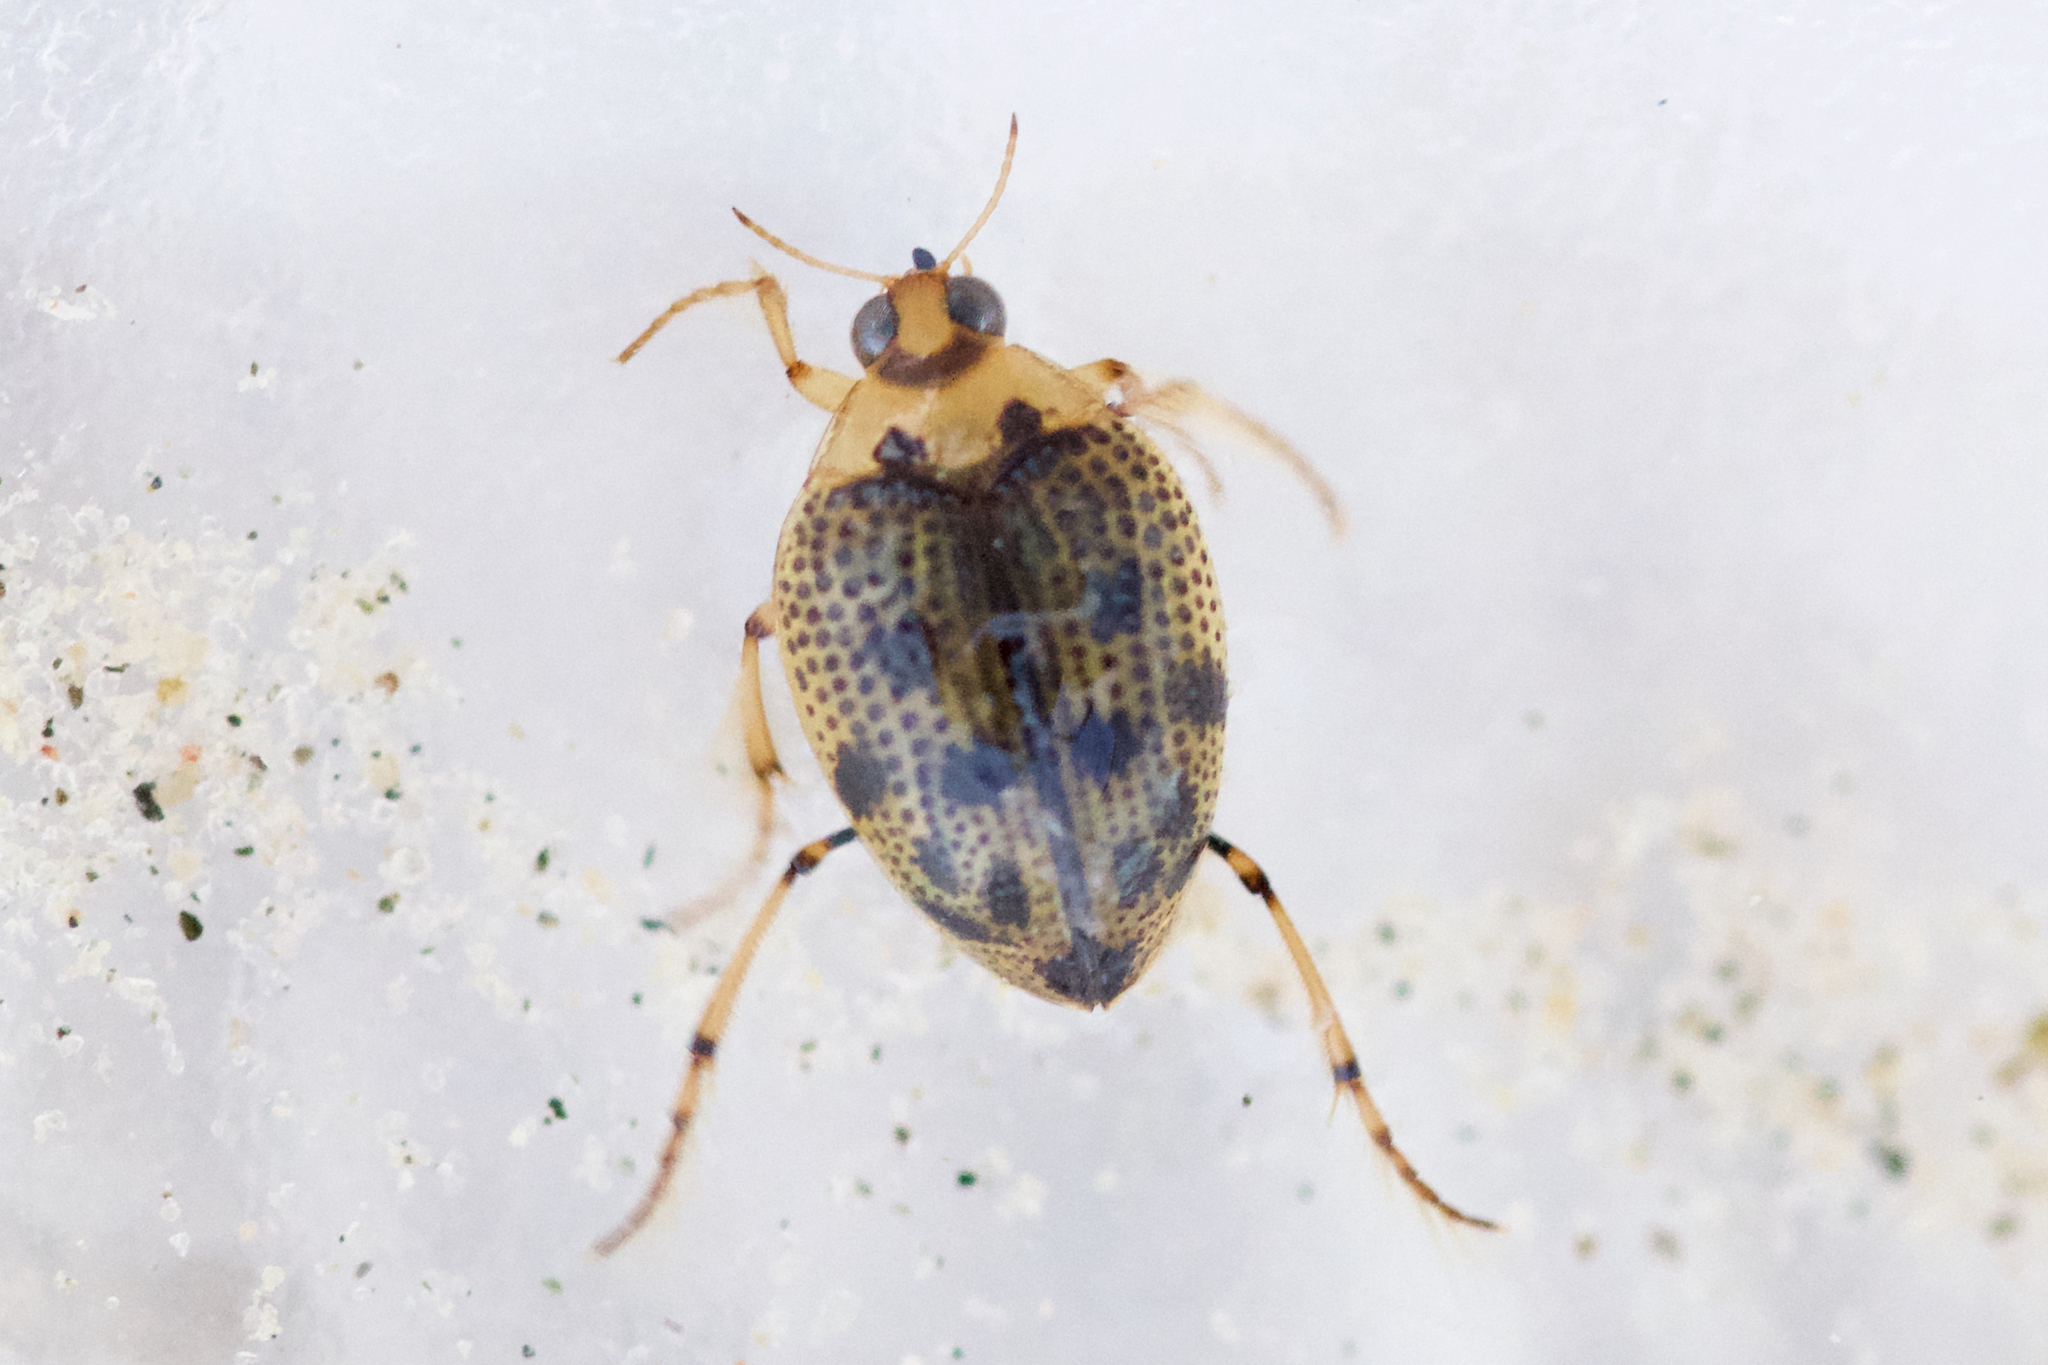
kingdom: Animalia
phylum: Arthropoda
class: Insecta
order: Coleoptera
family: Haliplidae
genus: Peltodytes
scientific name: Peltodytes edentulus
